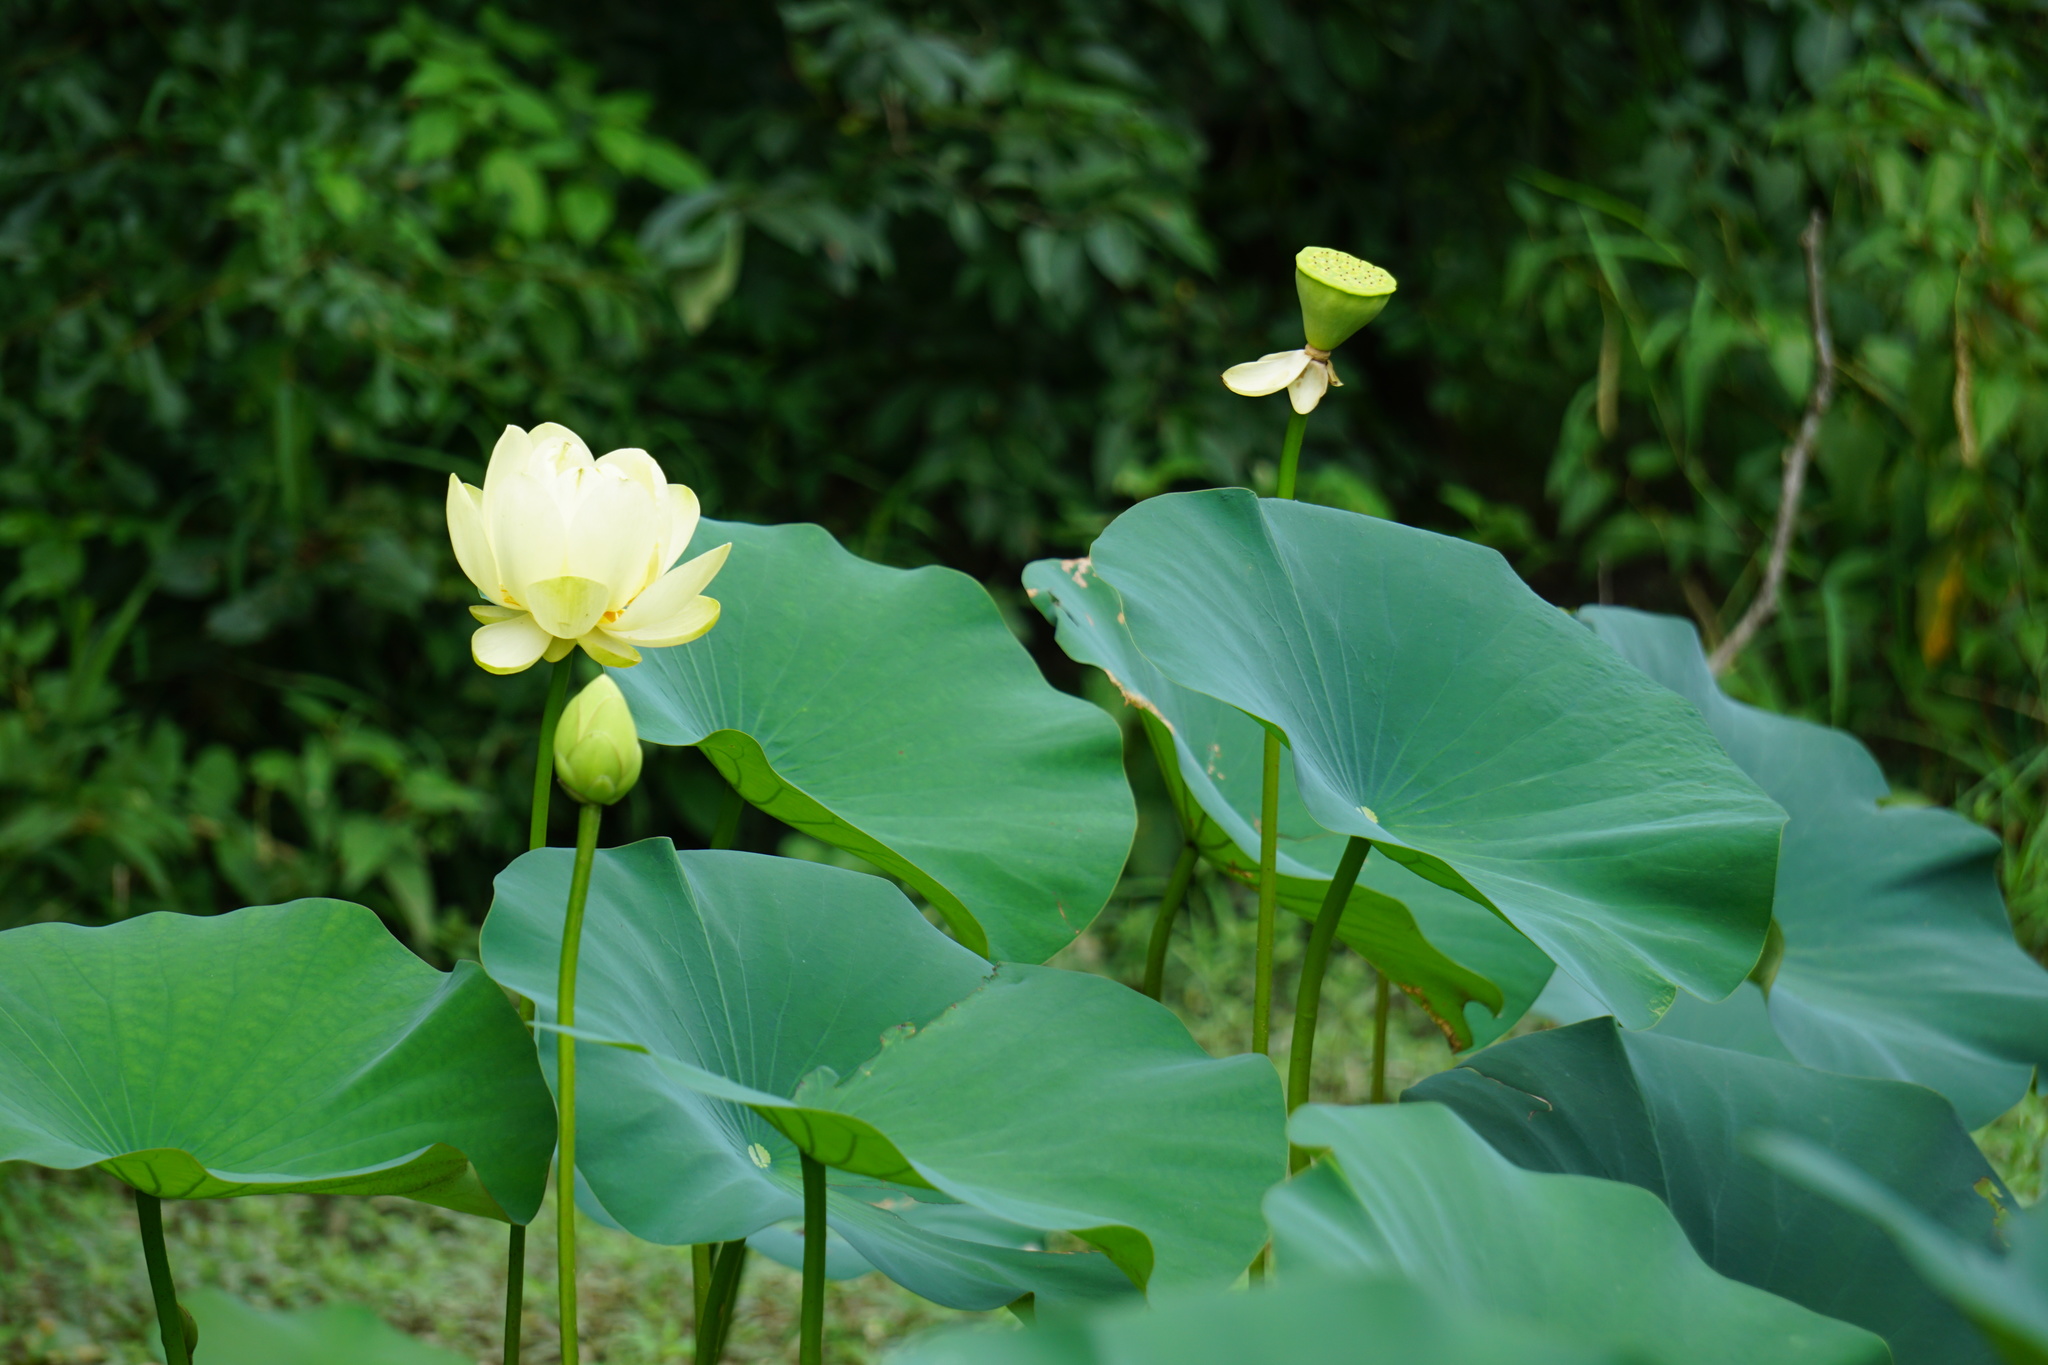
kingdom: Plantae
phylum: Tracheophyta
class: Magnoliopsida
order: Proteales
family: Nelumbonaceae
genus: Nelumbo
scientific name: Nelumbo lutea
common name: American lotus
